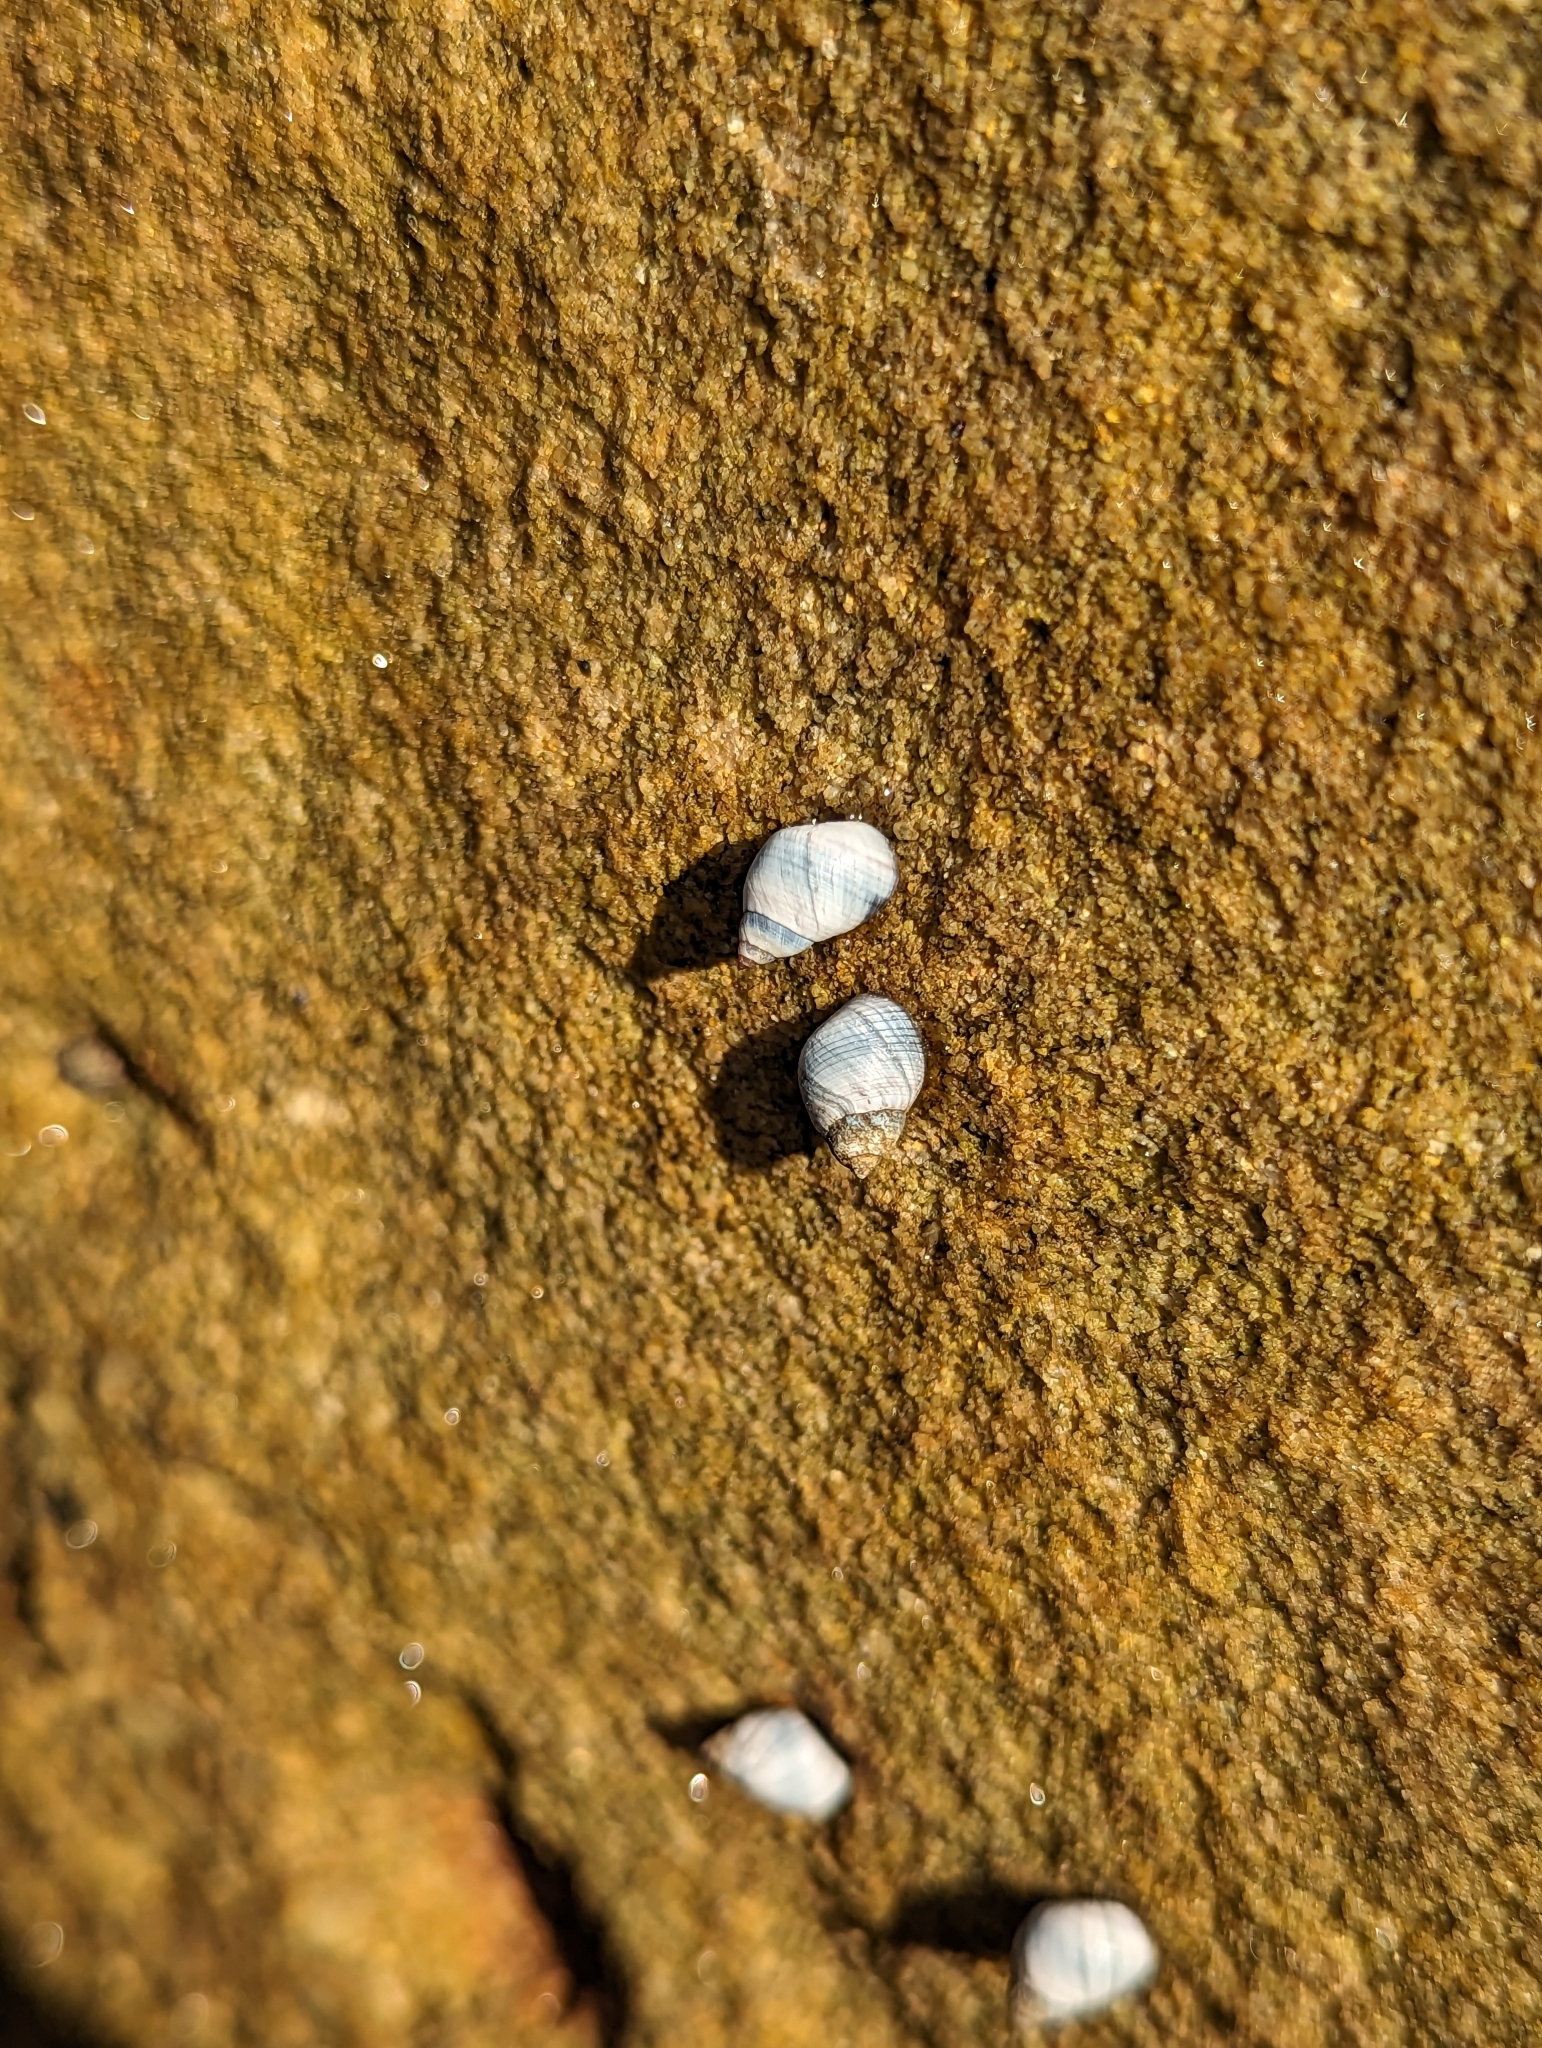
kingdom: Animalia
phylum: Mollusca
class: Gastropoda
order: Littorinimorpha
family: Littorinidae
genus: Austrolittorina
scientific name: Austrolittorina unifasciata
